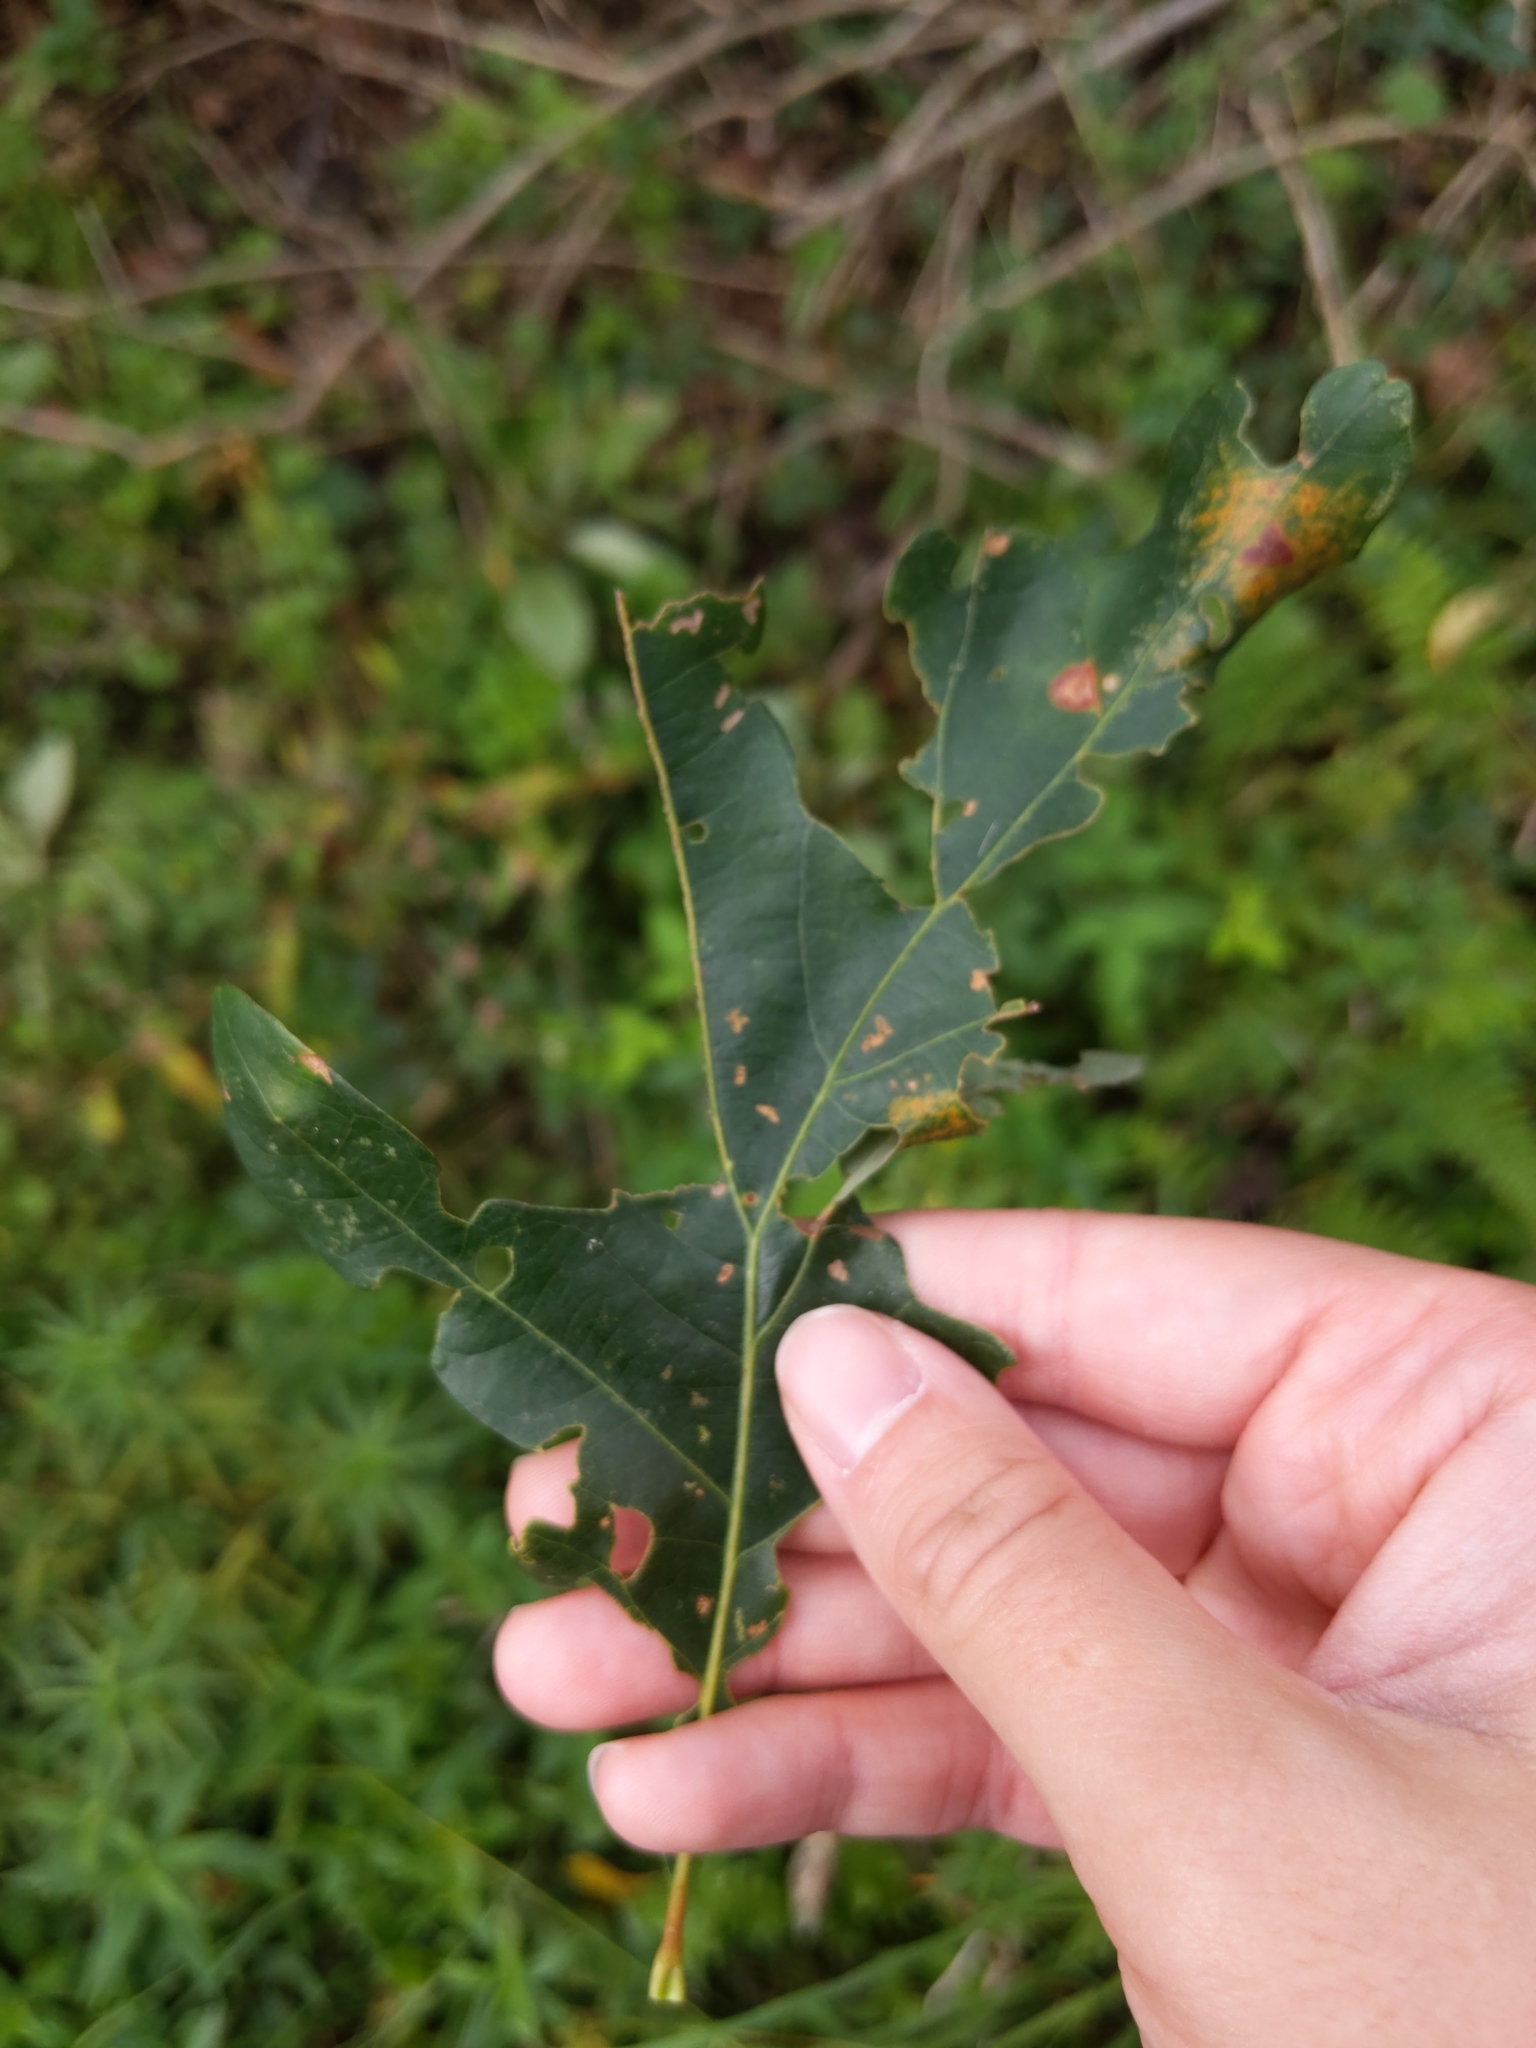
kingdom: Animalia
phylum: Arthropoda
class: Insecta
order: Hymenoptera
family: Cynipidae
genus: Philonix
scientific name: Philonix fulvicollis
